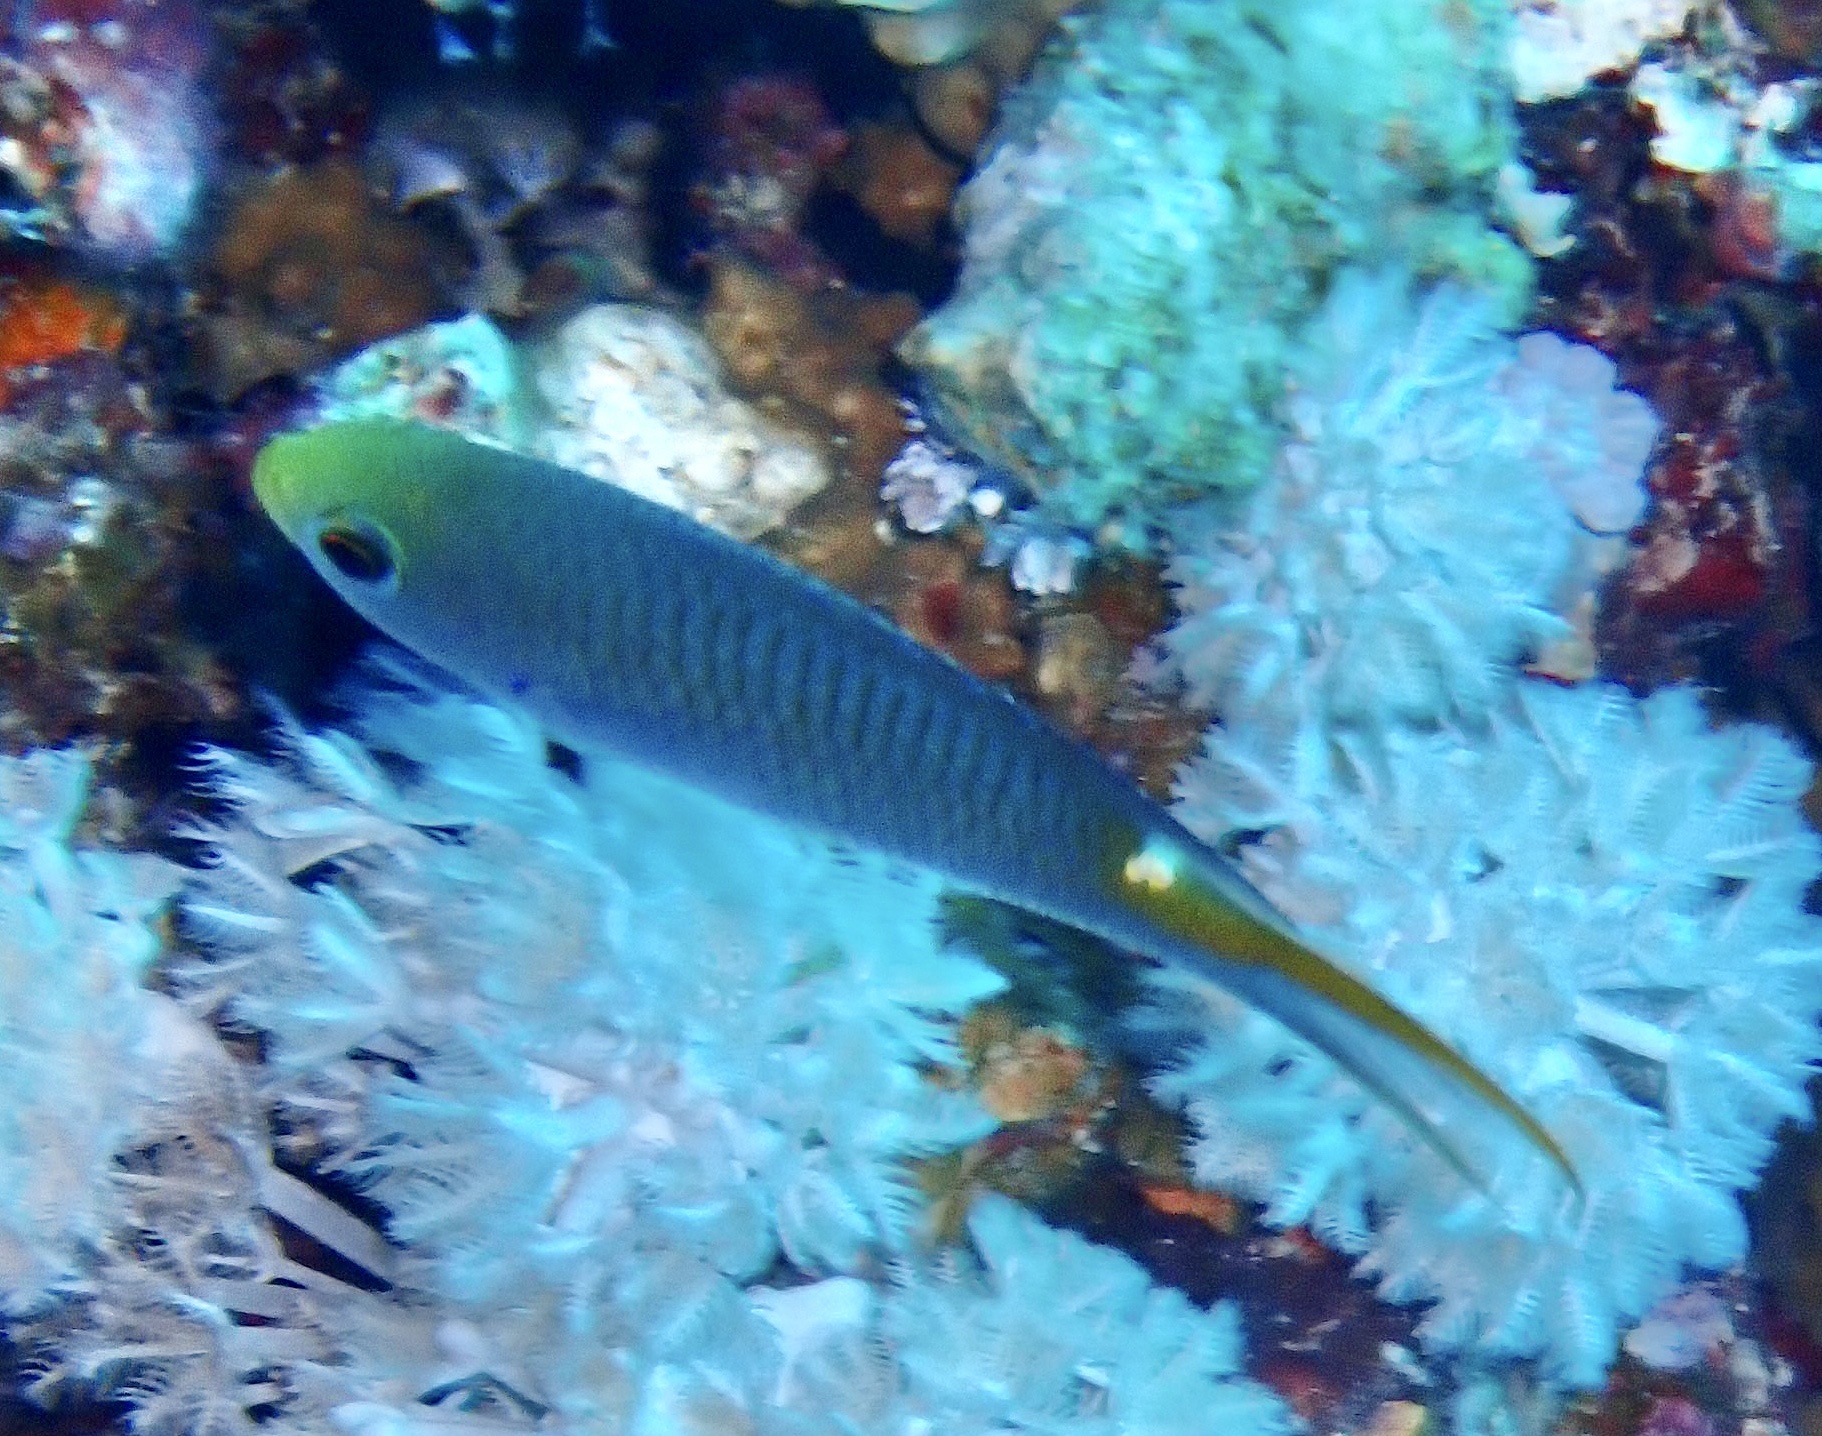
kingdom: Animalia
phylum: Chordata
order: Perciformes
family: Pomacentridae
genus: Neopomacentrus
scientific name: Neopomacentrus miryae
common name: Miry's demoiselle
